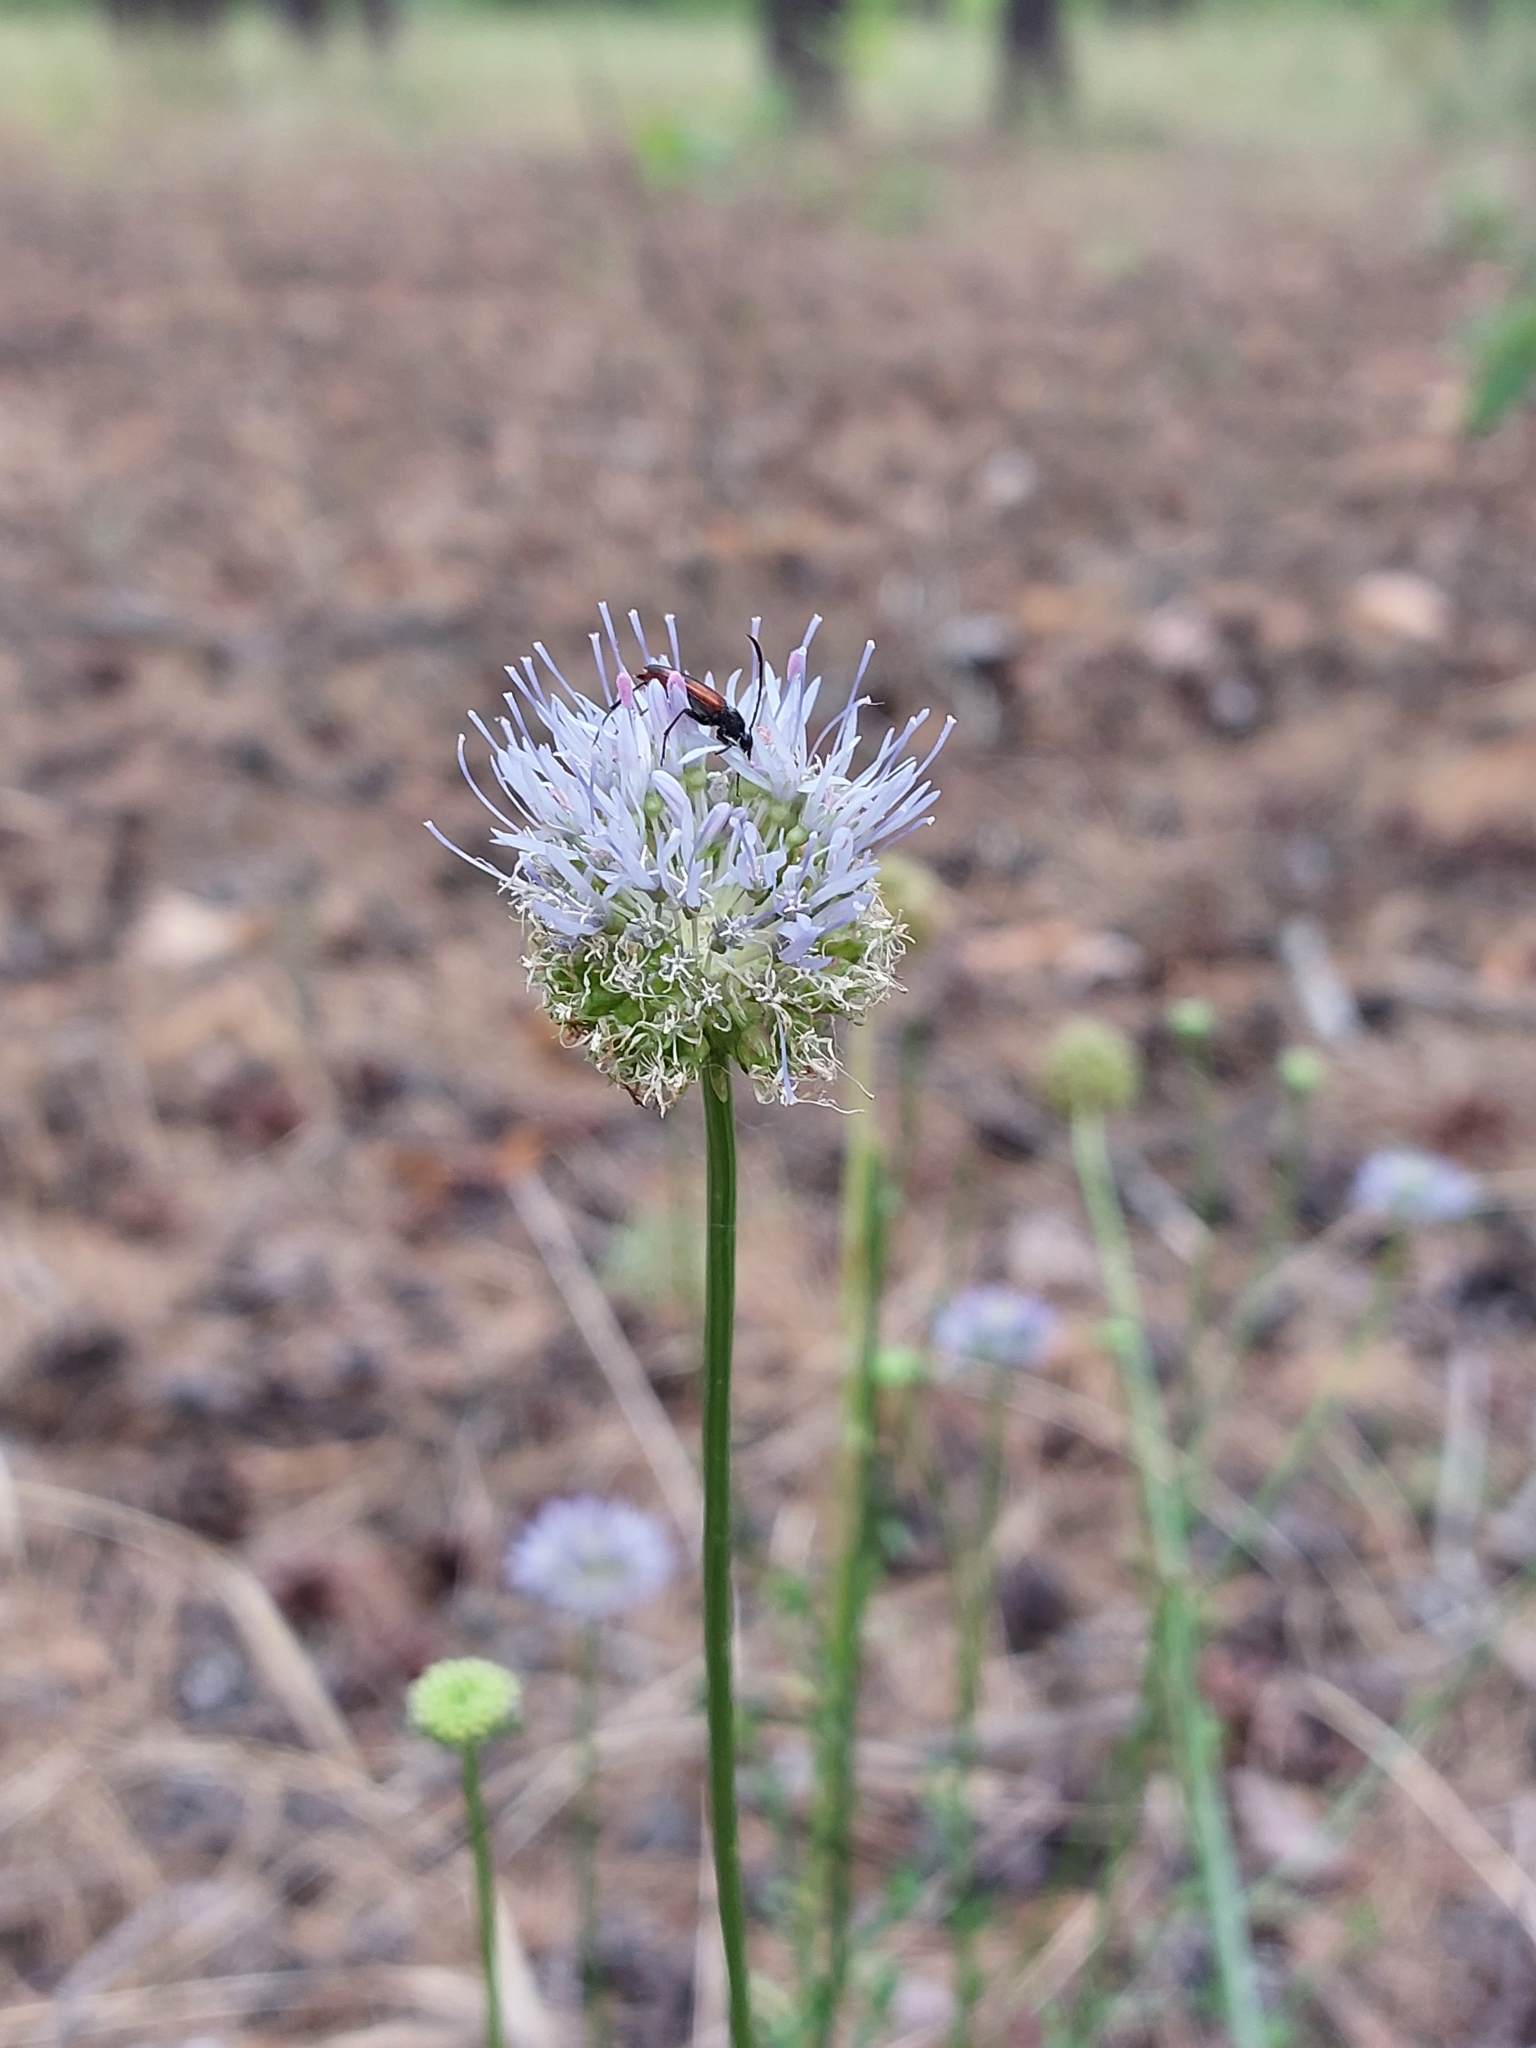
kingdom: Plantae
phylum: Tracheophyta
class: Magnoliopsida
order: Asterales
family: Campanulaceae
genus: Jasione
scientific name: Jasione montana
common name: Sheep's-bit
